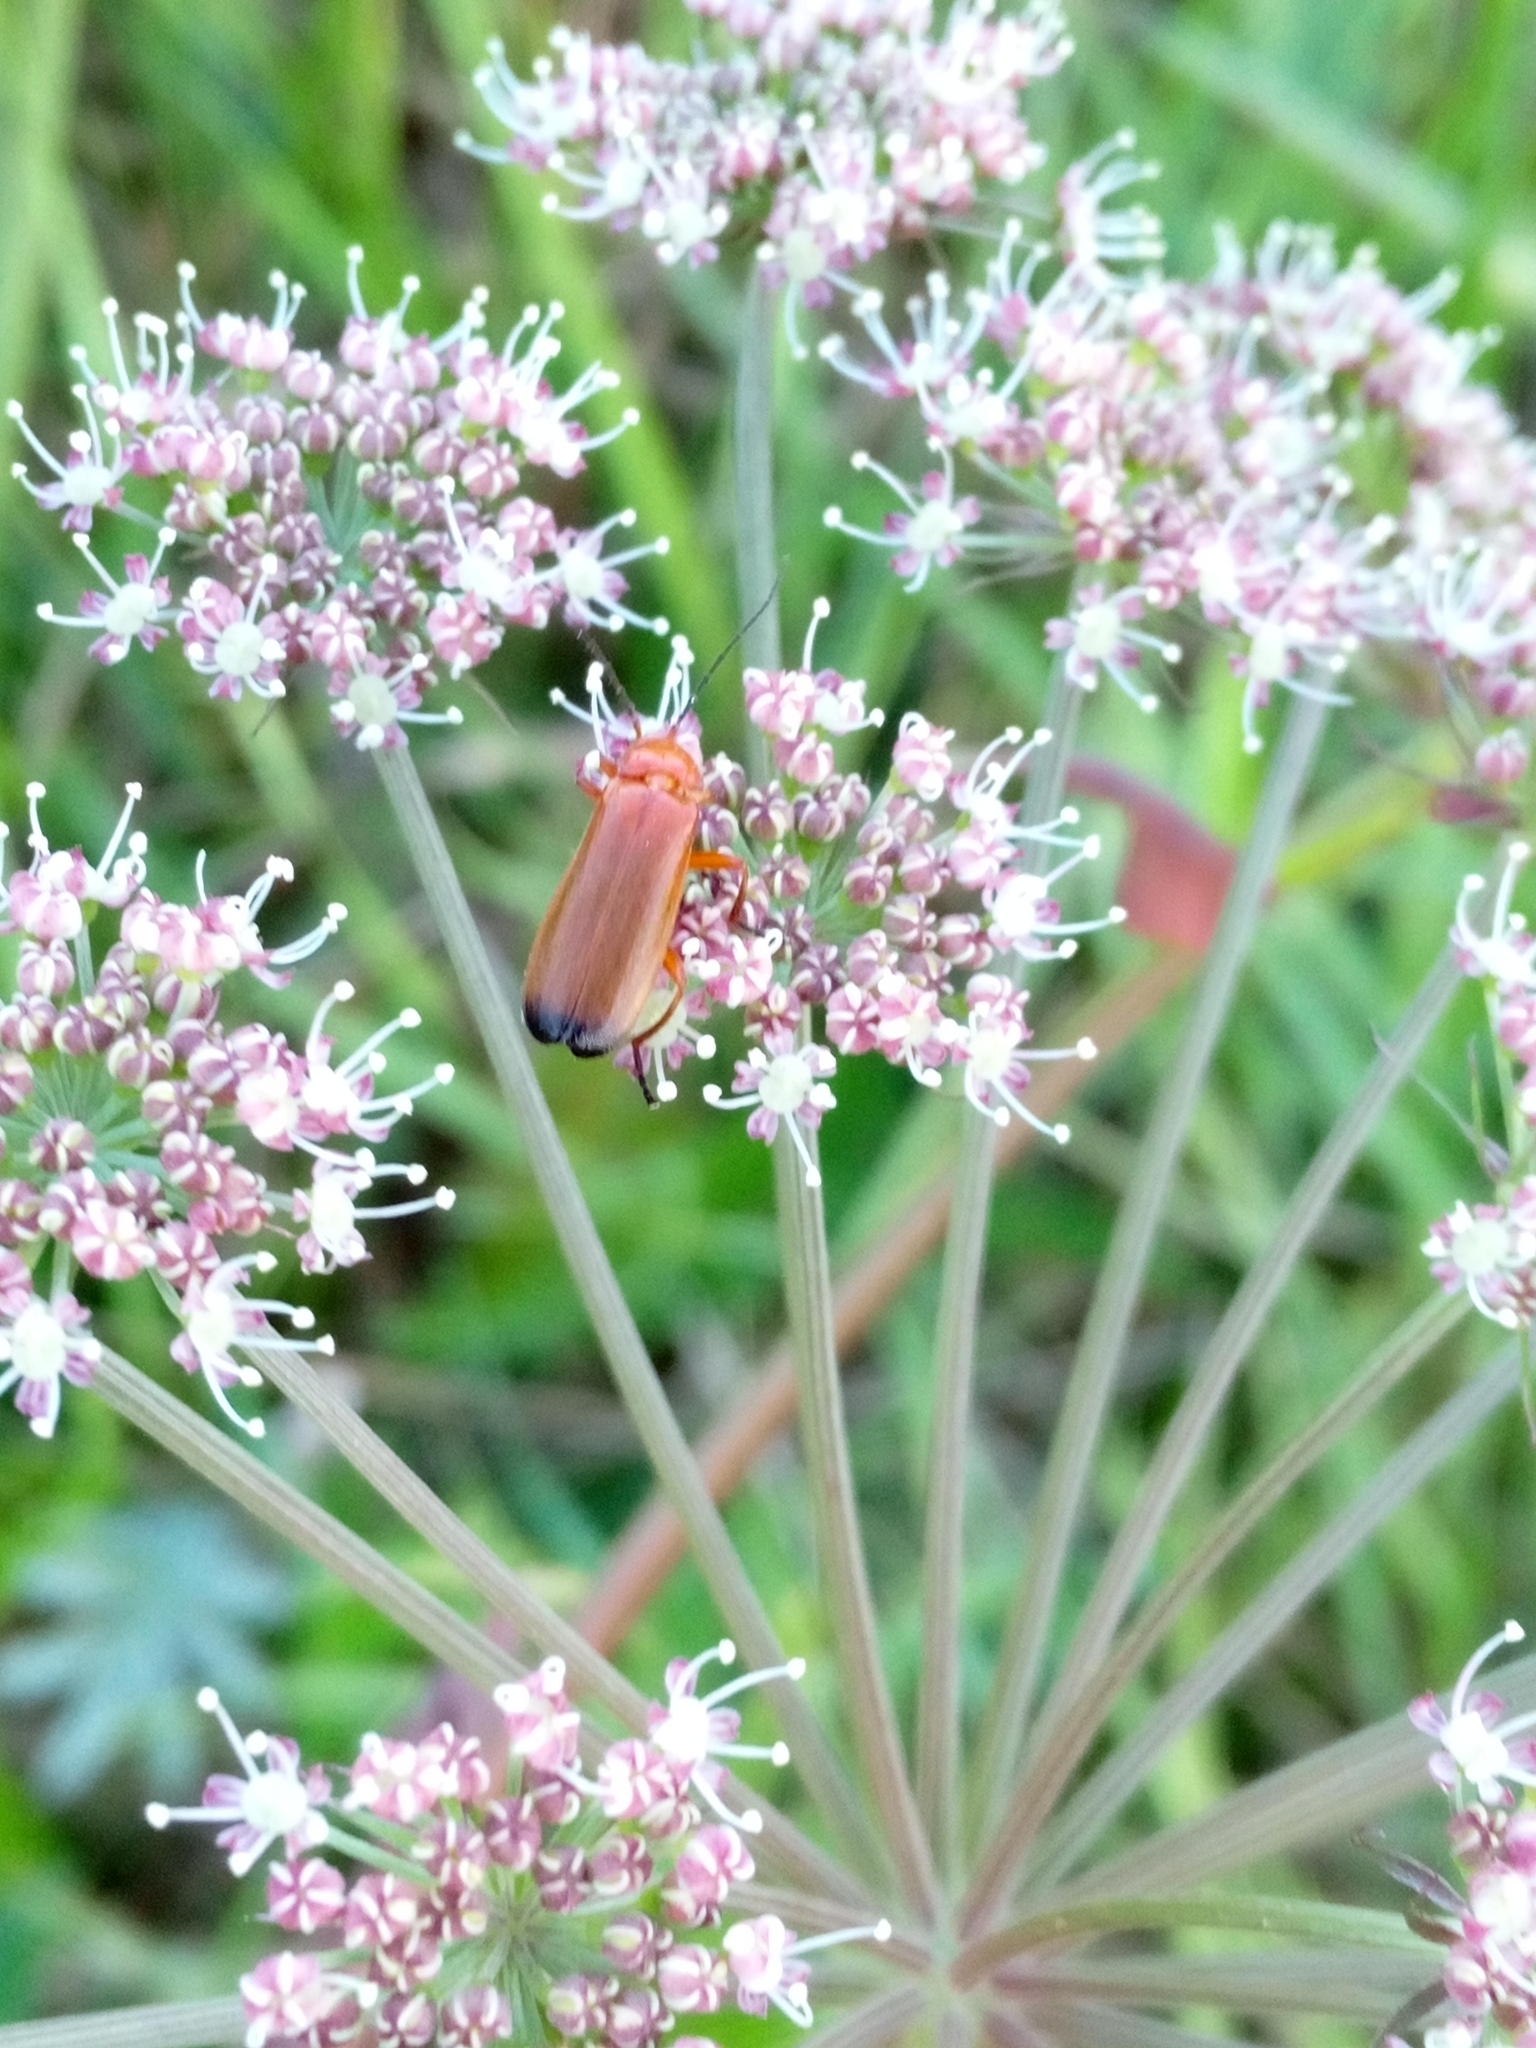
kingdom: Animalia
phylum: Arthropoda
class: Insecta
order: Coleoptera
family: Cantharidae
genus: Rhagonycha
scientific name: Rhagonycha fulva
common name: Common red soldier beetle
